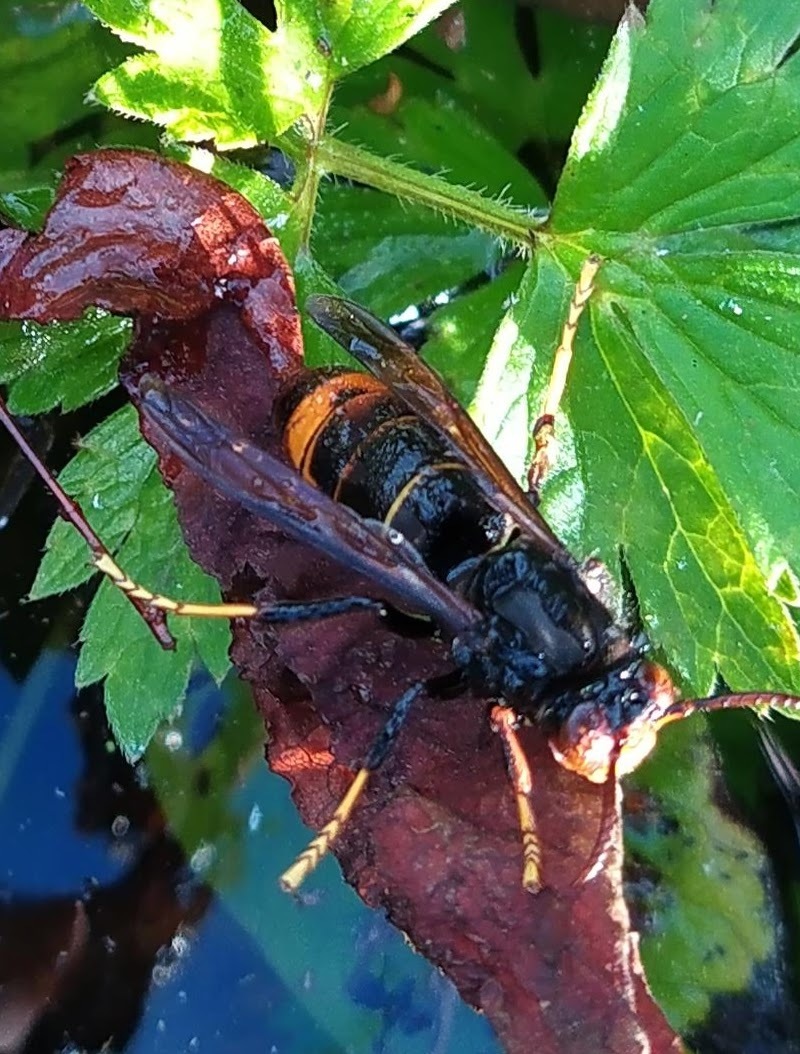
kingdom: Animalia
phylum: Arthropoda
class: Insecta
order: Hymenoptera
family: Vespidae
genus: Vespa
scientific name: Vespa velutina
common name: Asian hornet
